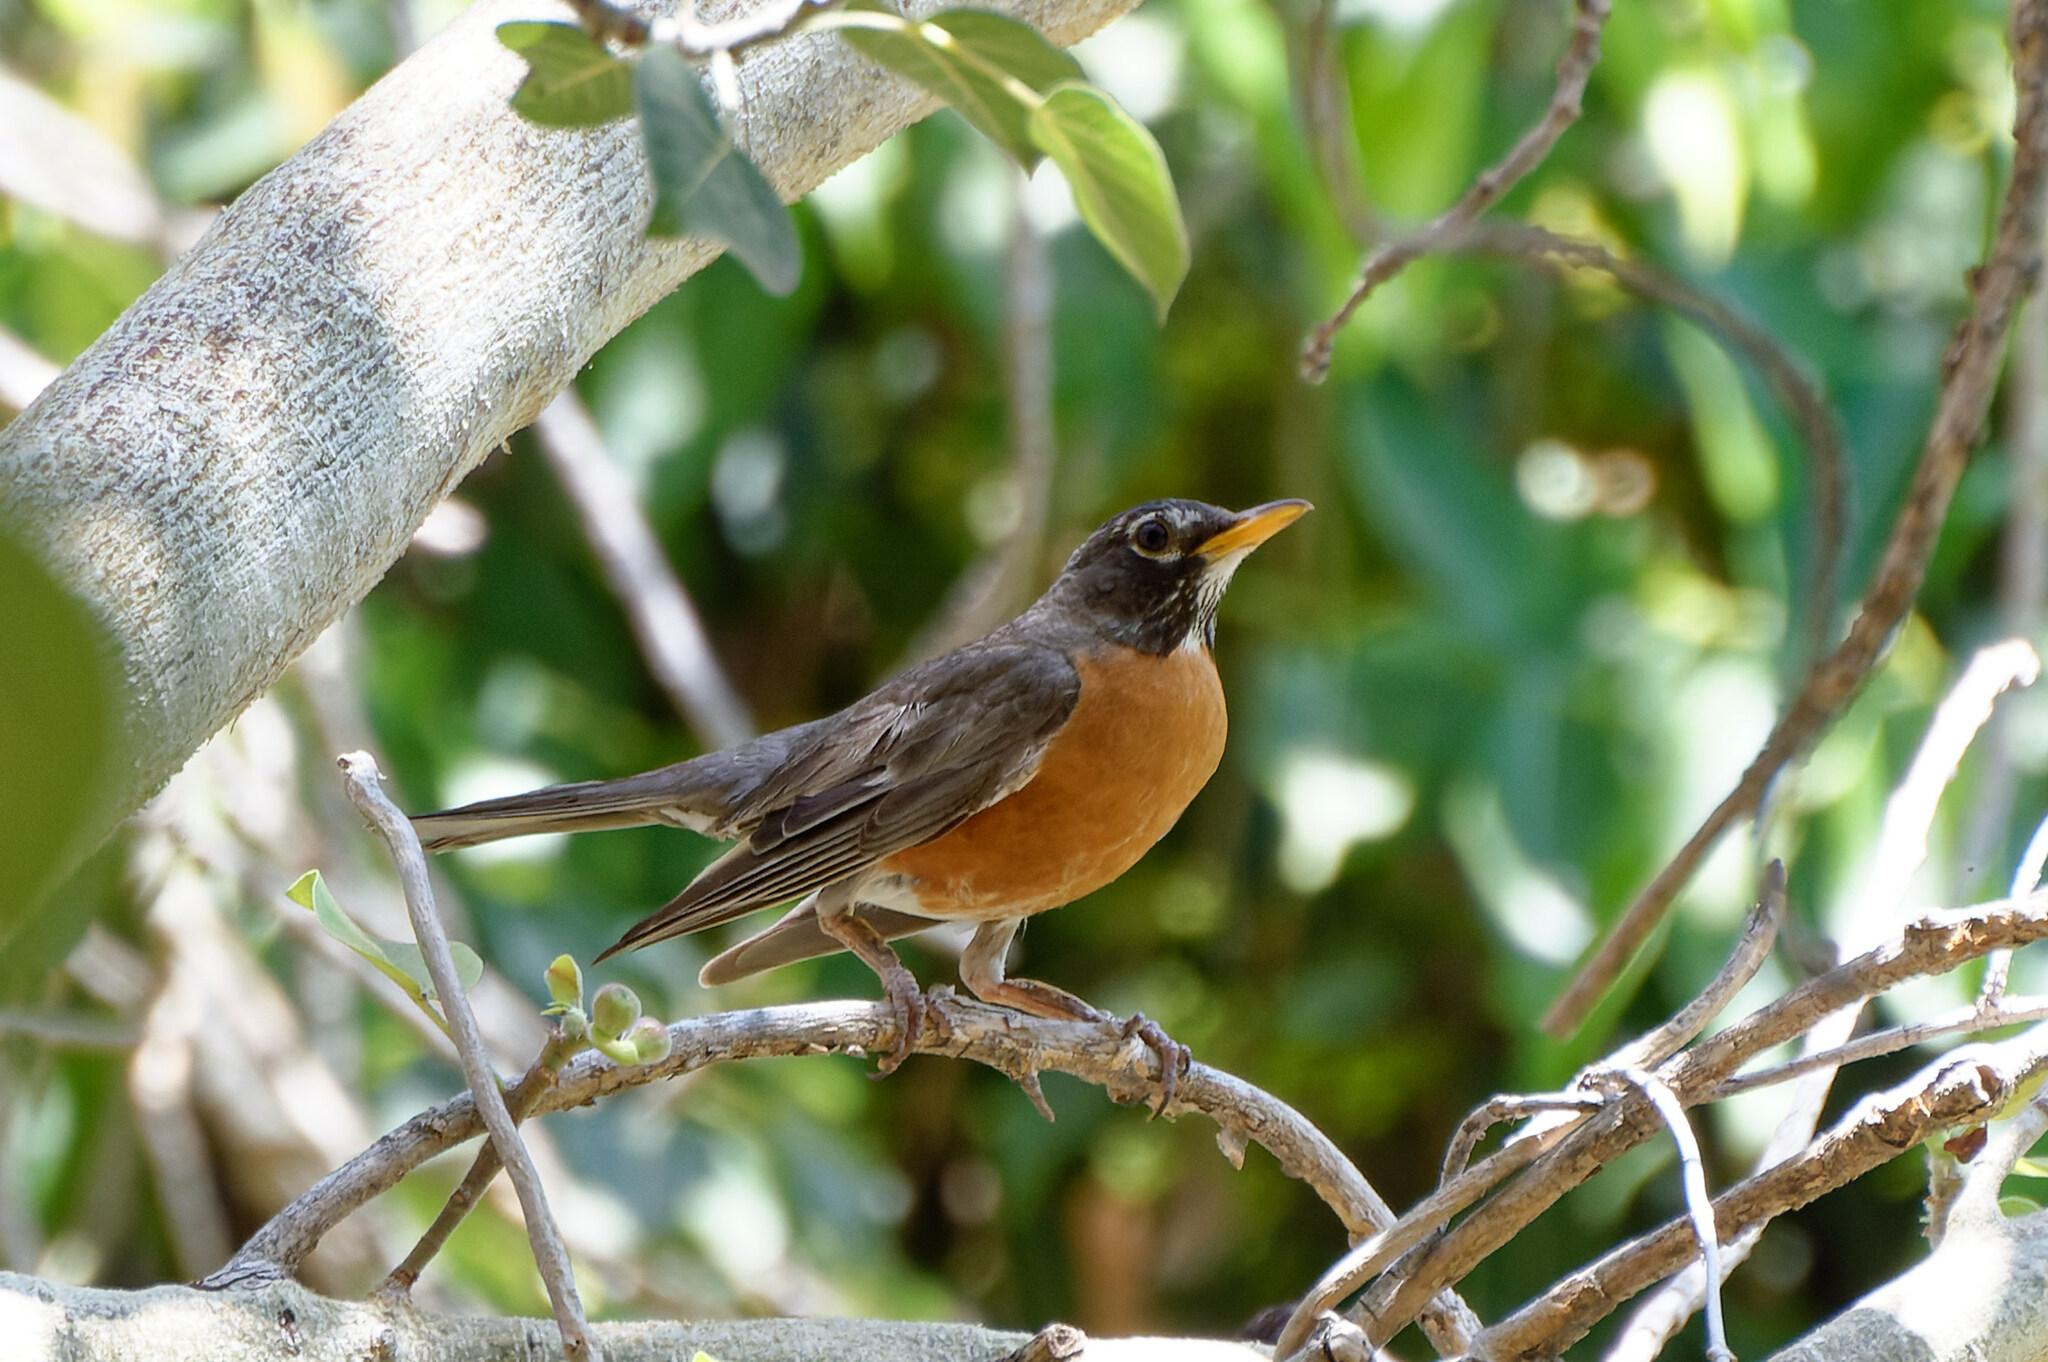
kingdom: Animalia
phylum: Chordata
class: Aves
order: Passeriformes
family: Turdidae
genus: Turdus
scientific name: Turdus migratorius
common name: American robin
